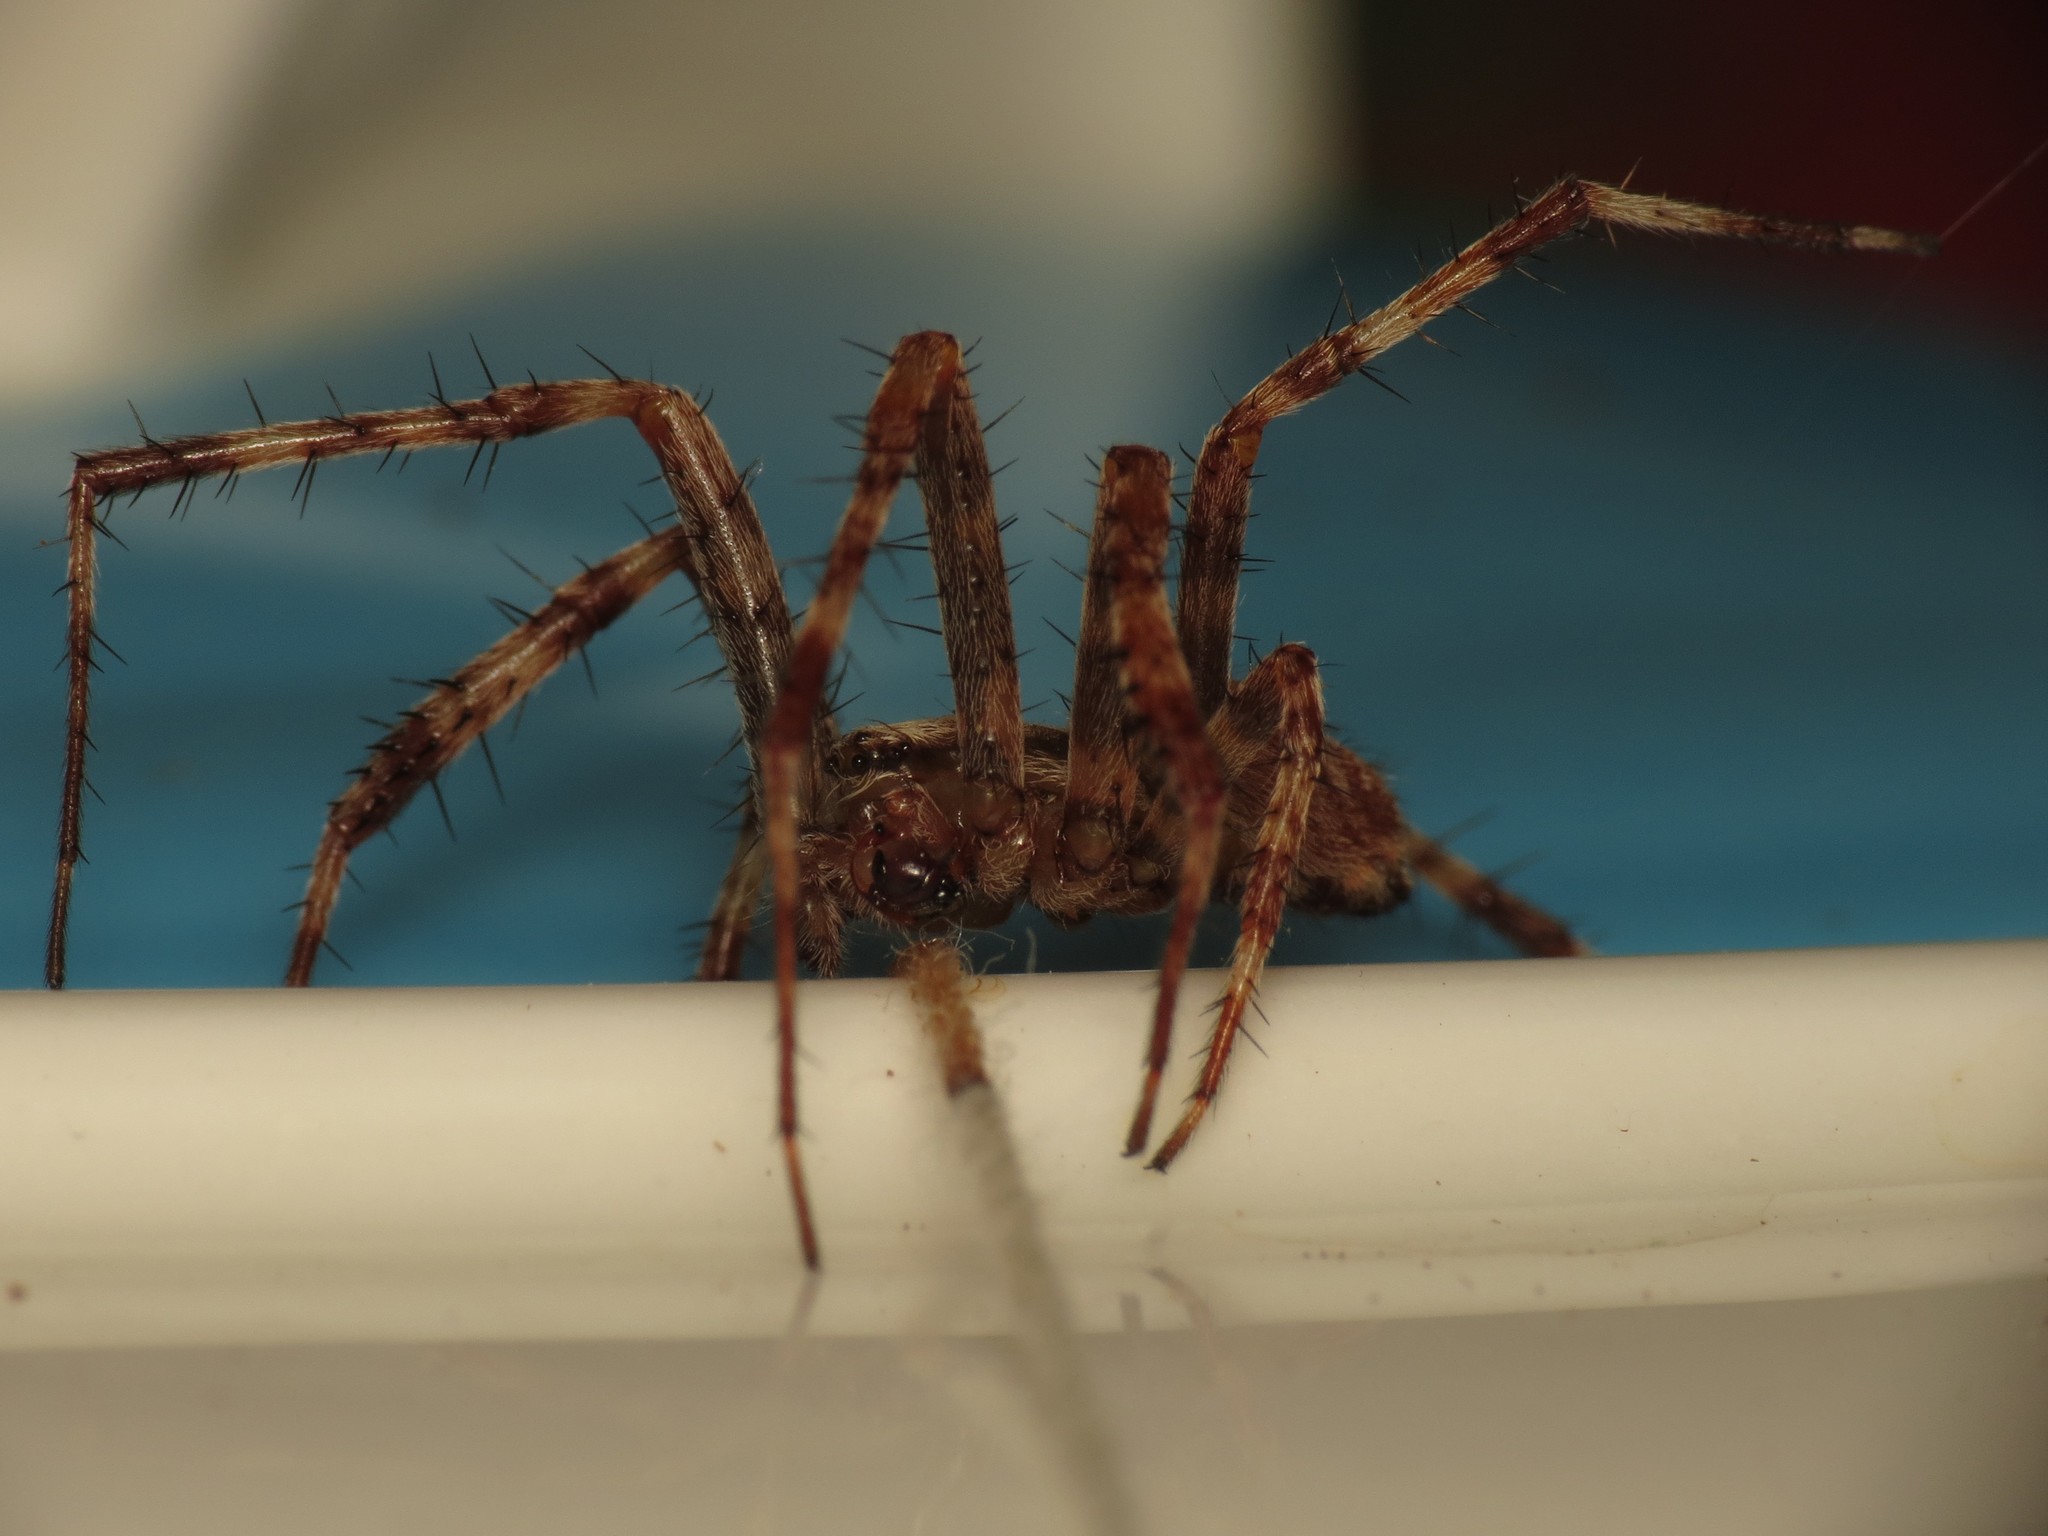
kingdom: Animalia
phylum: Arthropoda
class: Arachnida
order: Araneae
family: Araneidae
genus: Araneus
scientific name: Araneus diadematus
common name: Cross orbweaver
